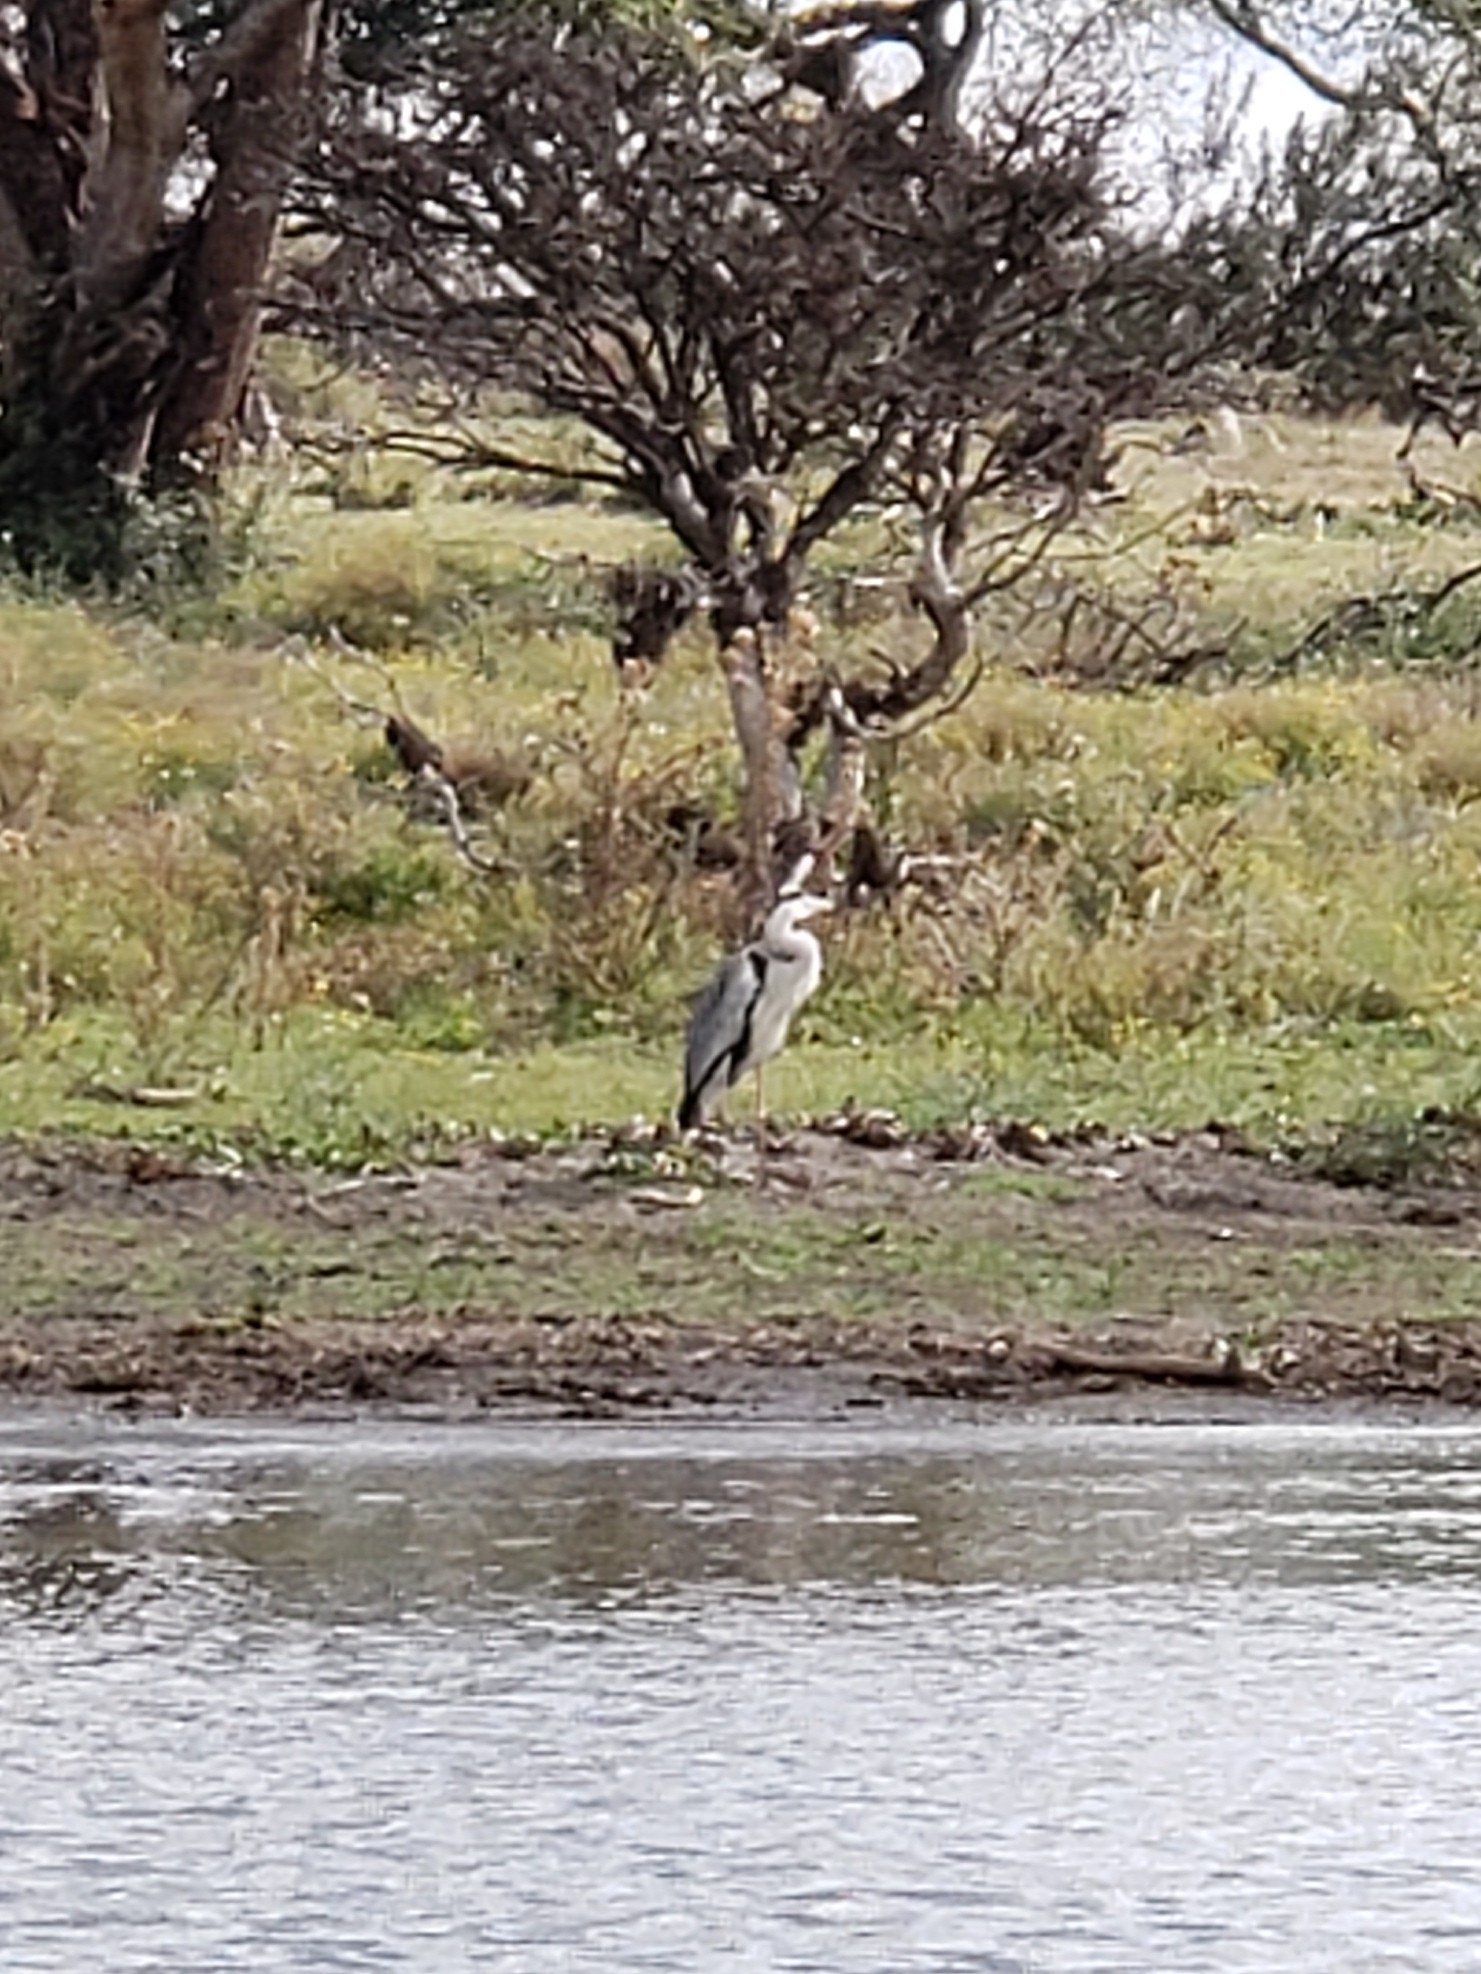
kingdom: Animalia
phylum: Chordata
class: Aves
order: Pelecaniformes
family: Ardeidae
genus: Ardea
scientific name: Ardea cinerea
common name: Grey heron
